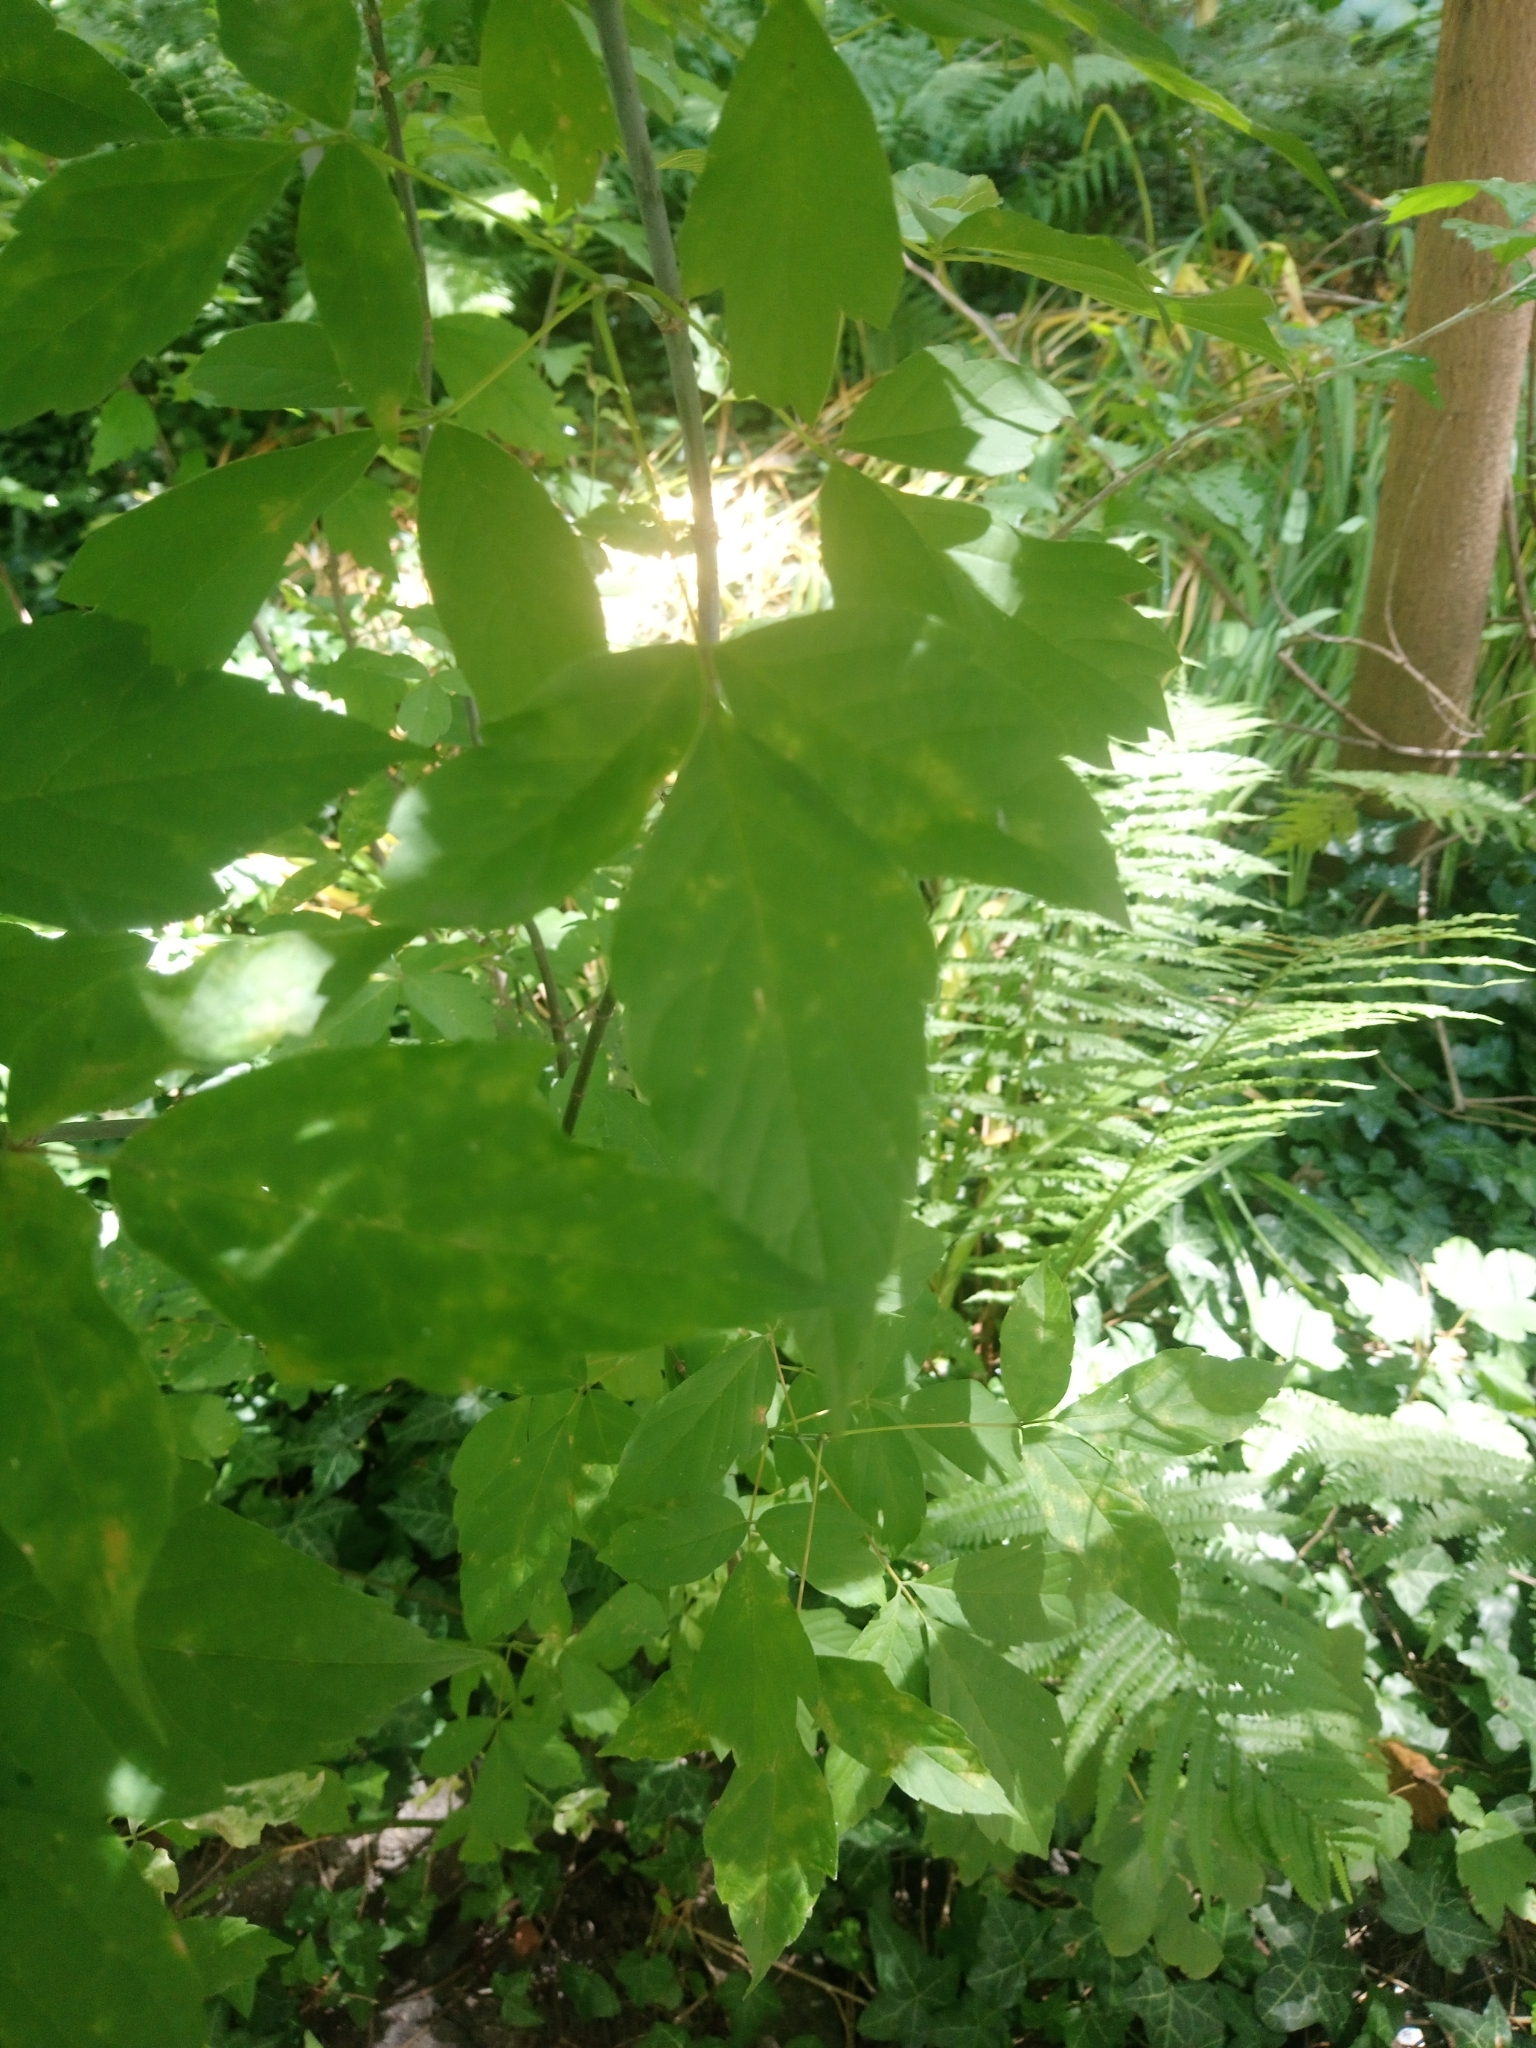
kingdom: Plantae
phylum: Tracheophyta
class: Magnoliopsida
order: Sapindales
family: Sapindaceae
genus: Acer
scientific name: Acer negundo
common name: Ashleaf maple
